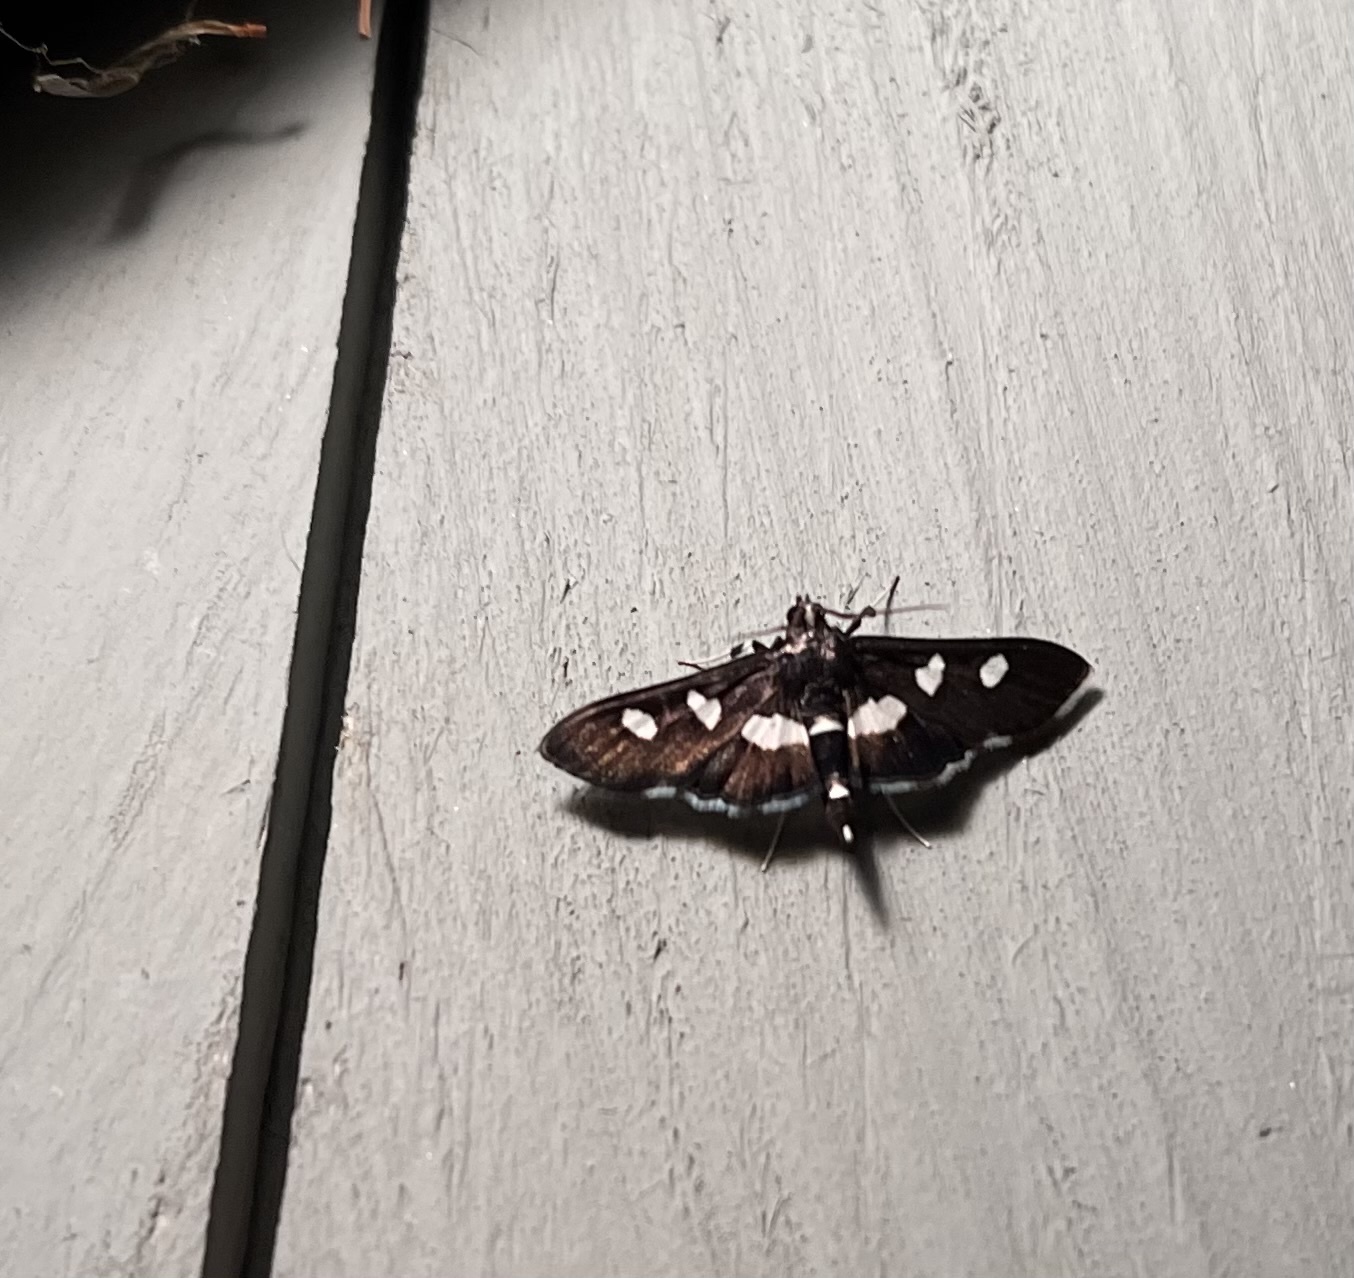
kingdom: Animalia
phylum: Arthropoda
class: Insecta
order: Lepidoptera
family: Crambidae
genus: Desmia
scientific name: Desmia
